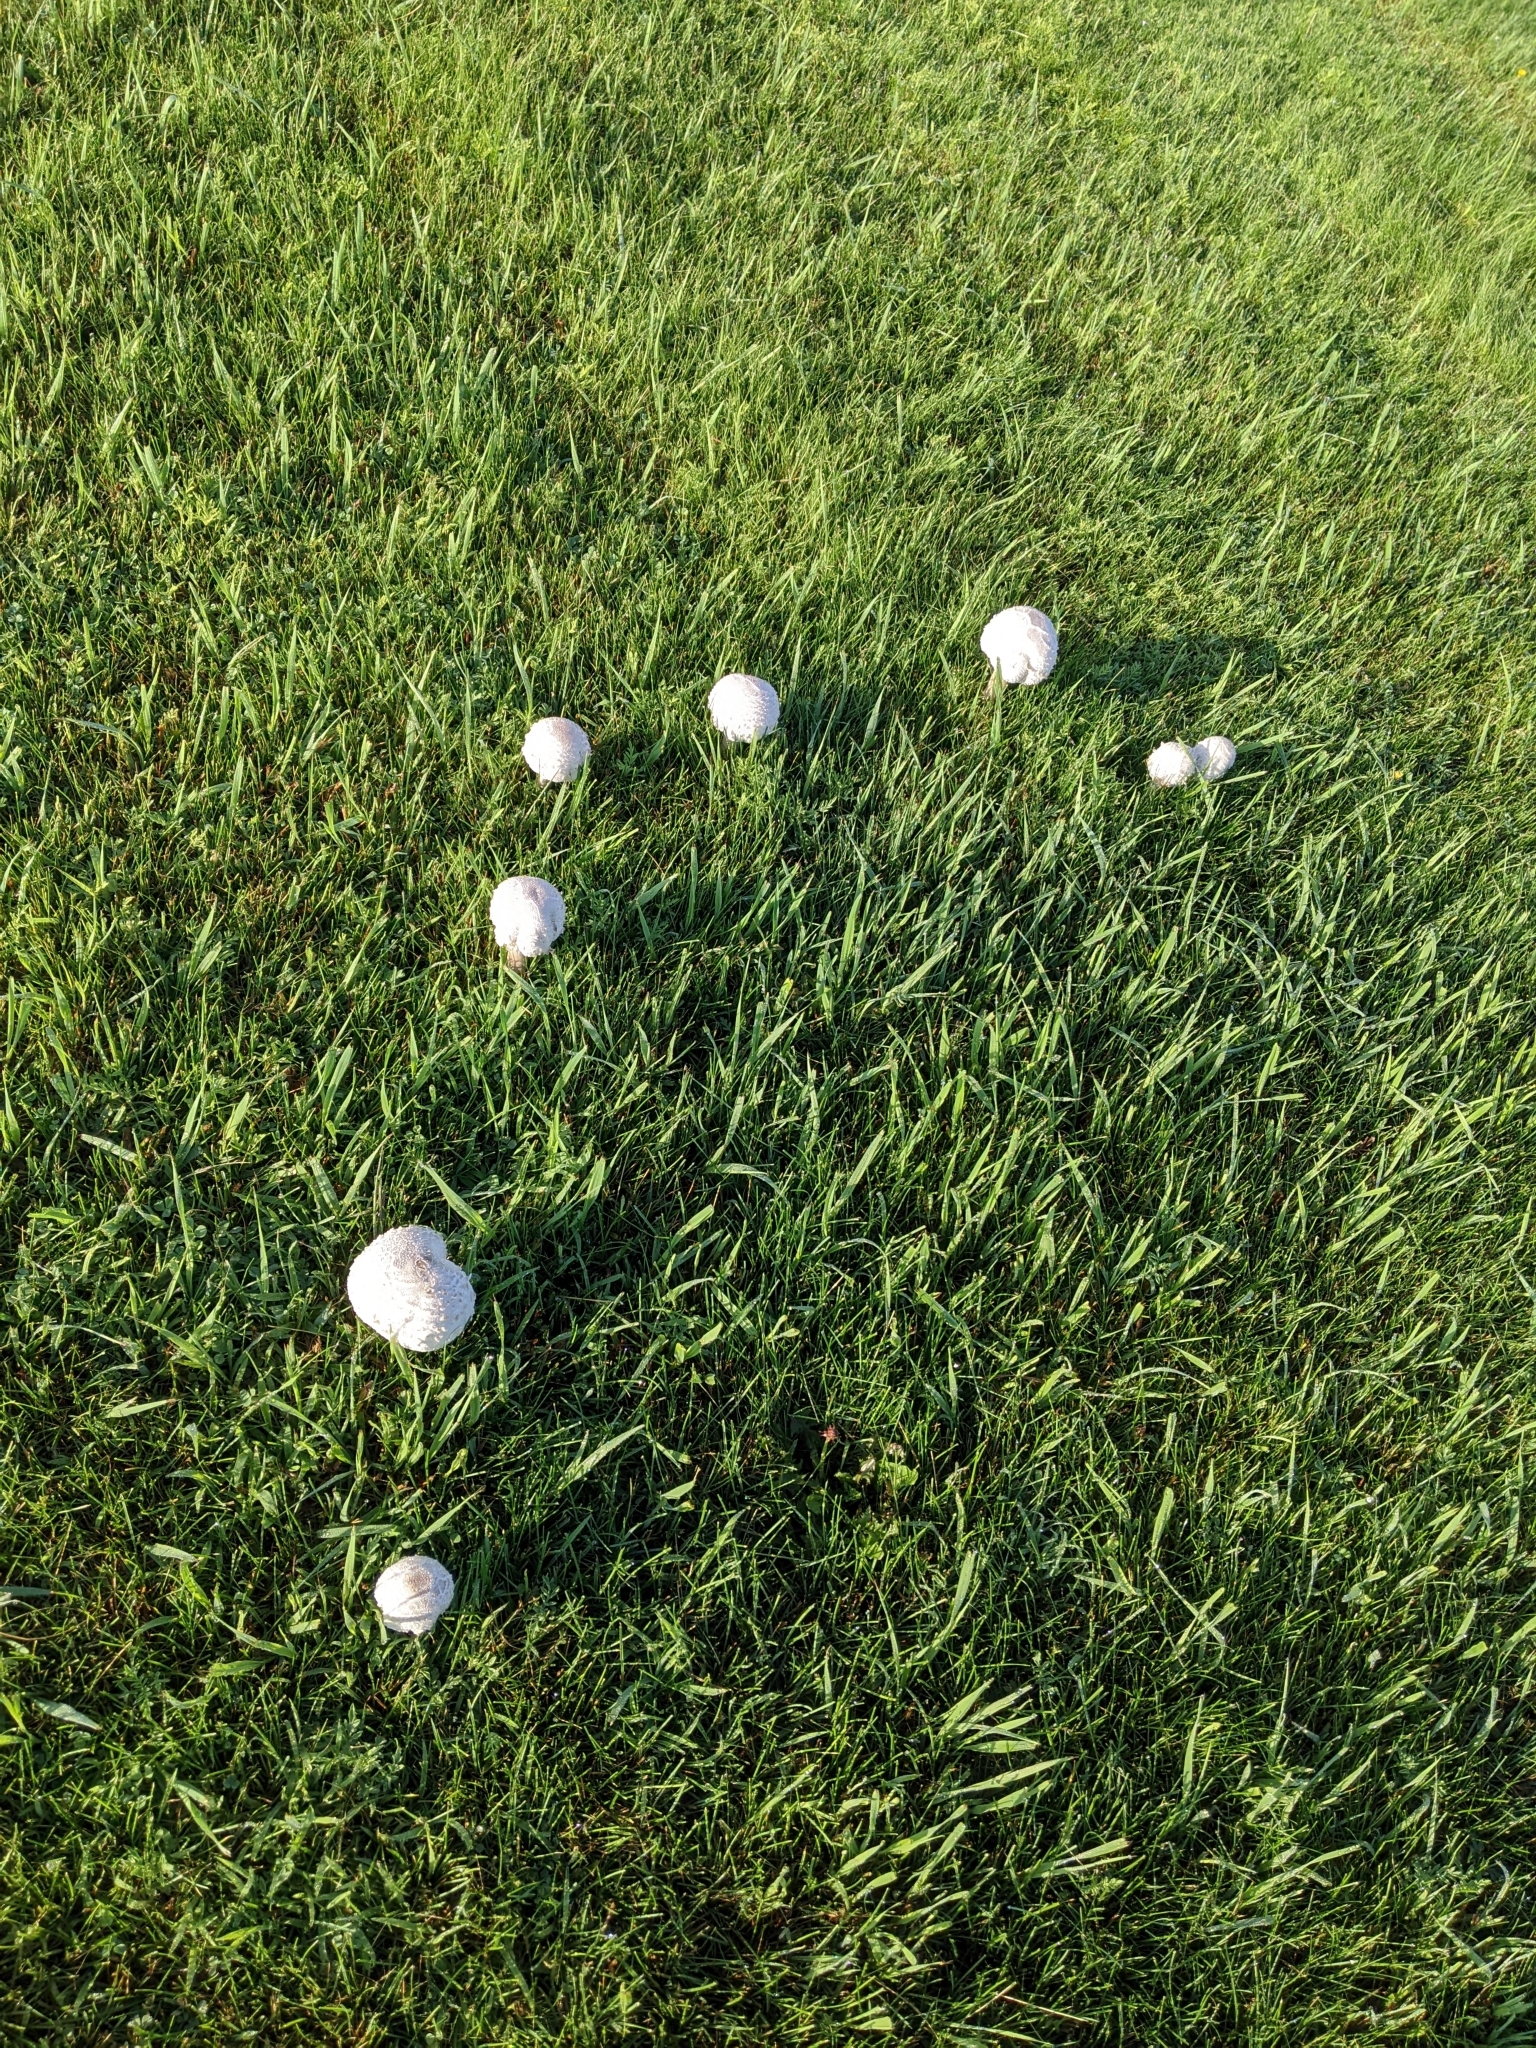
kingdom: Fungi
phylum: Basidiomycota
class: Agaricomycetes
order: Agaricales
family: Agaricaceae
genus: Chlorophyllum
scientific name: Chlorophyllum molybdites
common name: False parasol
